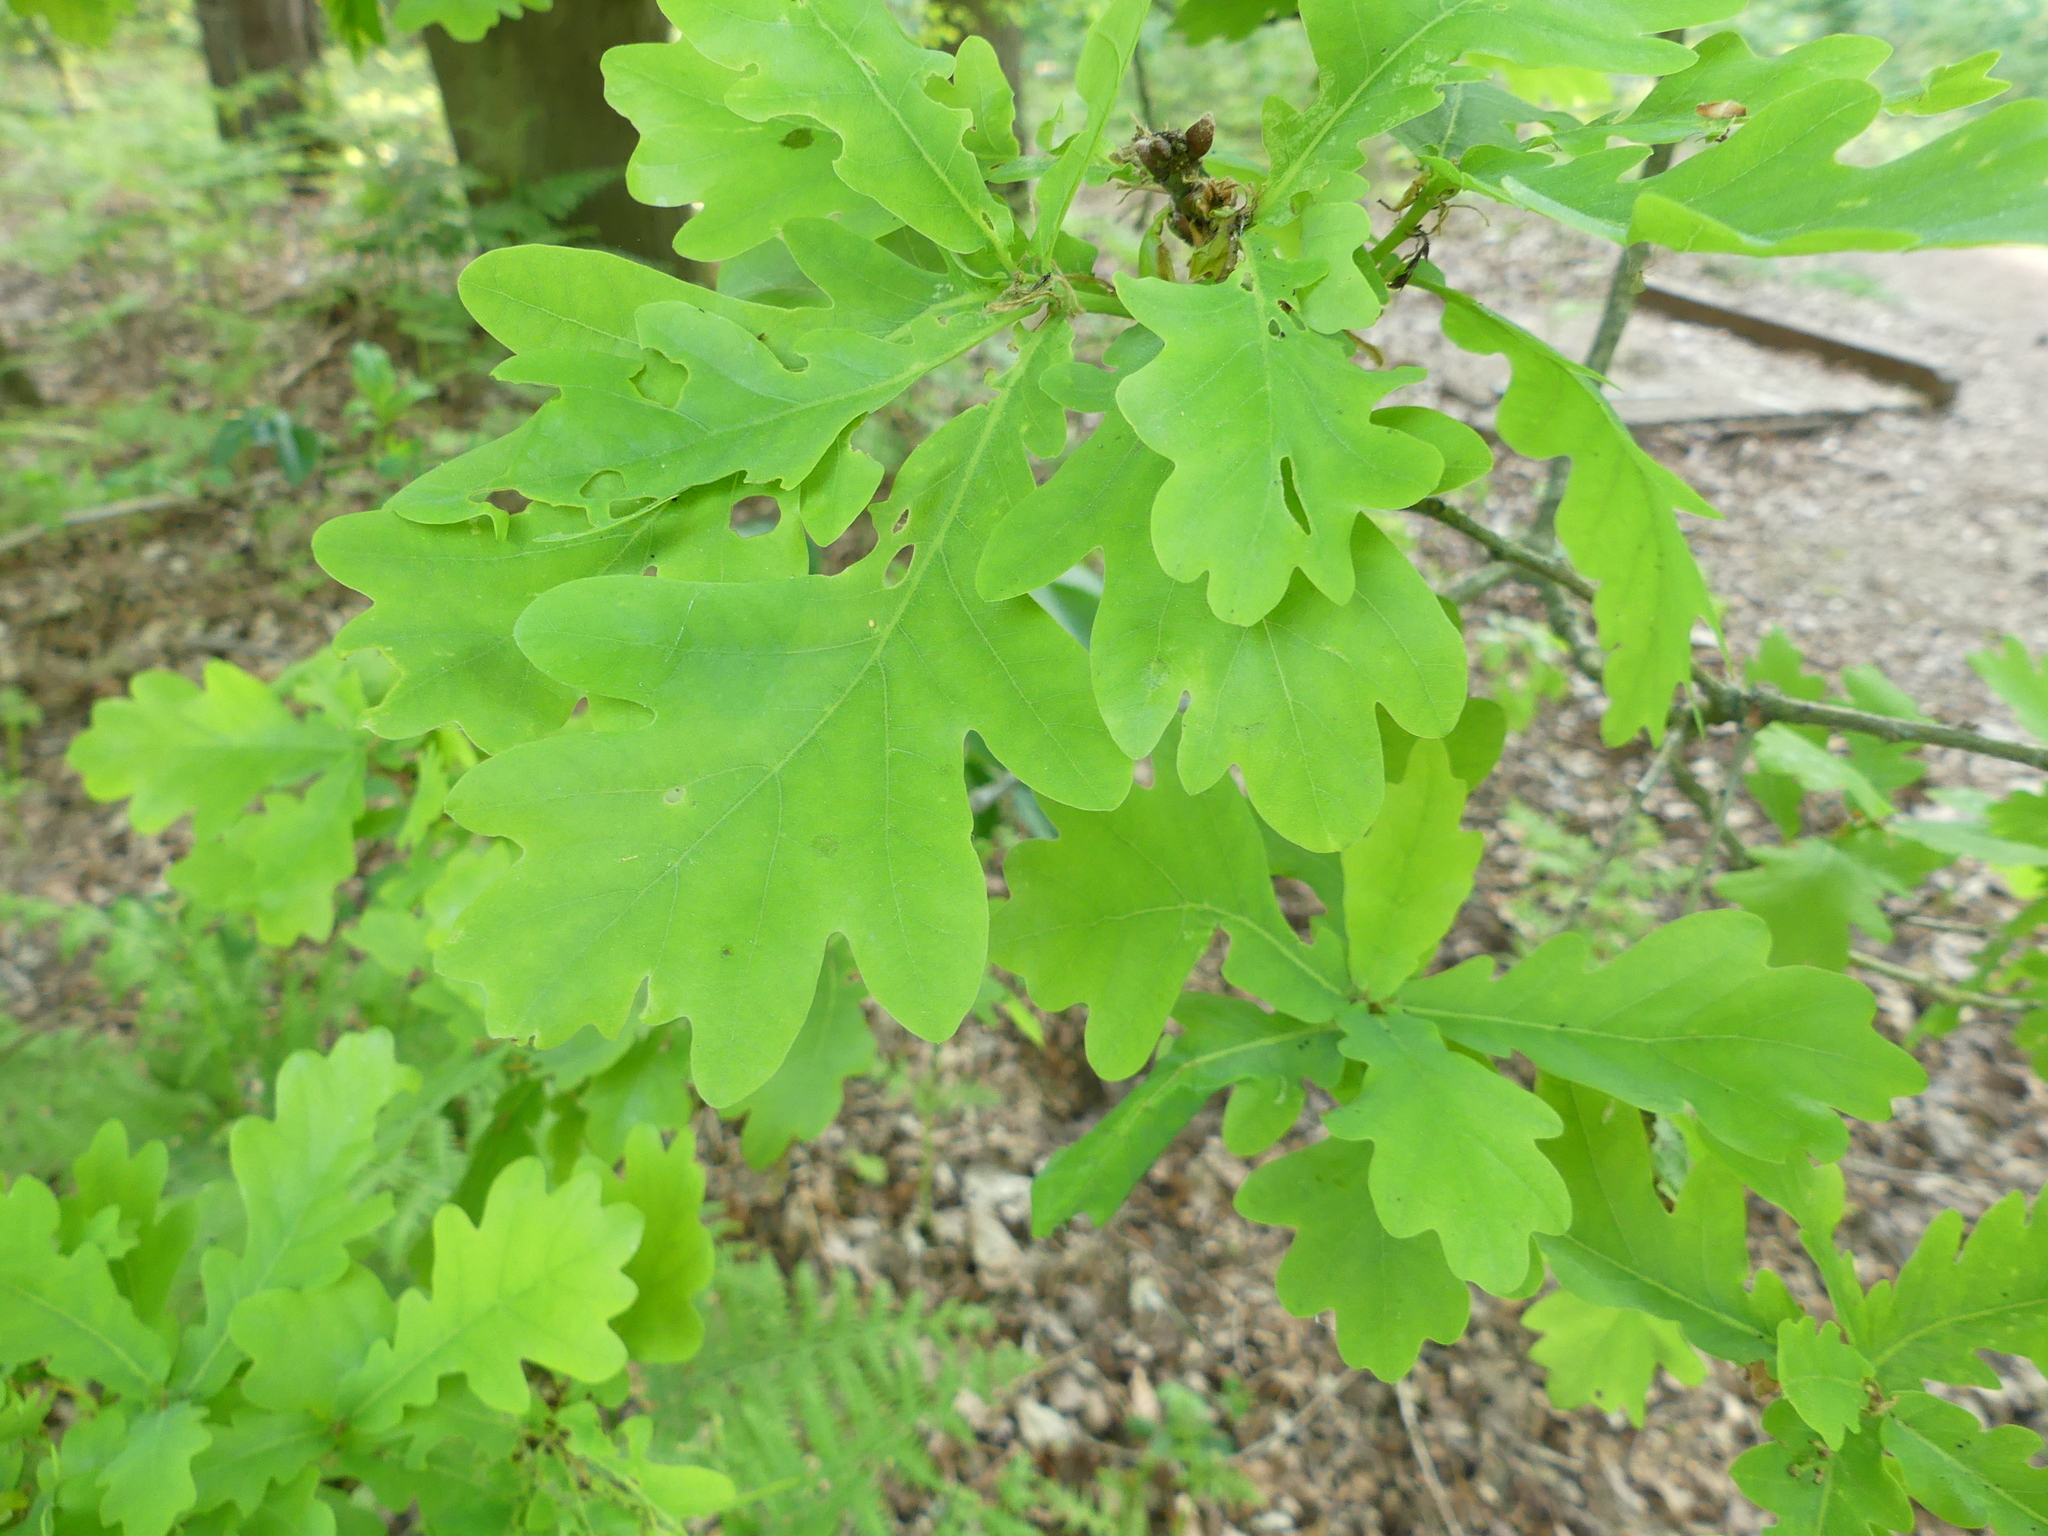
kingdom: Plantae
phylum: Tracheophyta
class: Magnoliopsida
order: Fagales
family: Fagaceae
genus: Quercus
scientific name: Quercus robur
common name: Pedunculate oak
